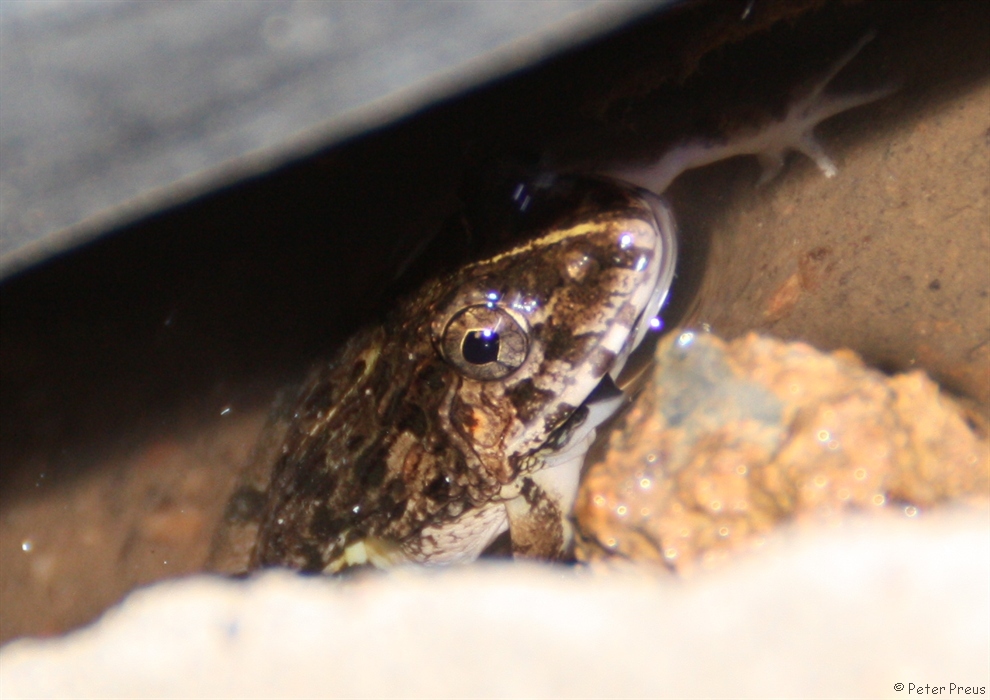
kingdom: Animalia
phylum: Chordata
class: Amphibia
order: Anura
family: Dicroglossidae
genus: Fejervarya
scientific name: Fejervarya limnocharis
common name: Asian grass frog/common pond frog/field frog/grass frog/indian rice frog
